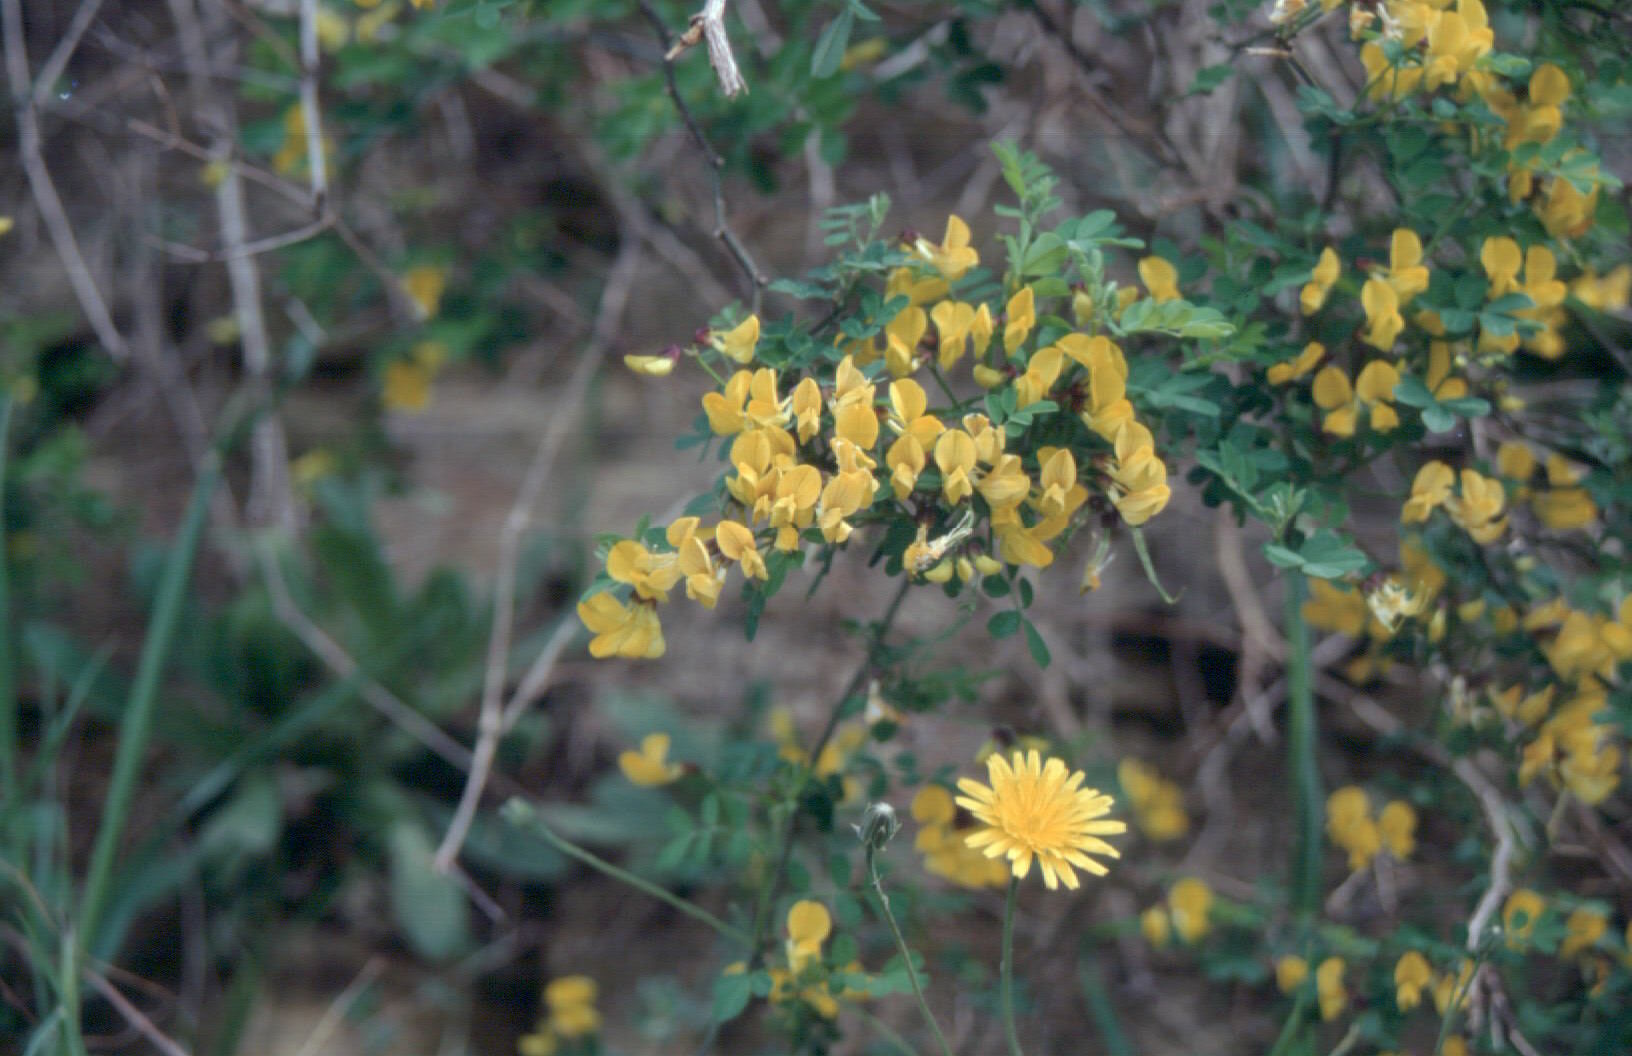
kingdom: Plantae
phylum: Tracheophyta
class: Magnoliopsida
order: Fabales
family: Fabaceae
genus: Hippocrepis
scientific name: Hippocrepis emerus
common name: Scorpion senna
